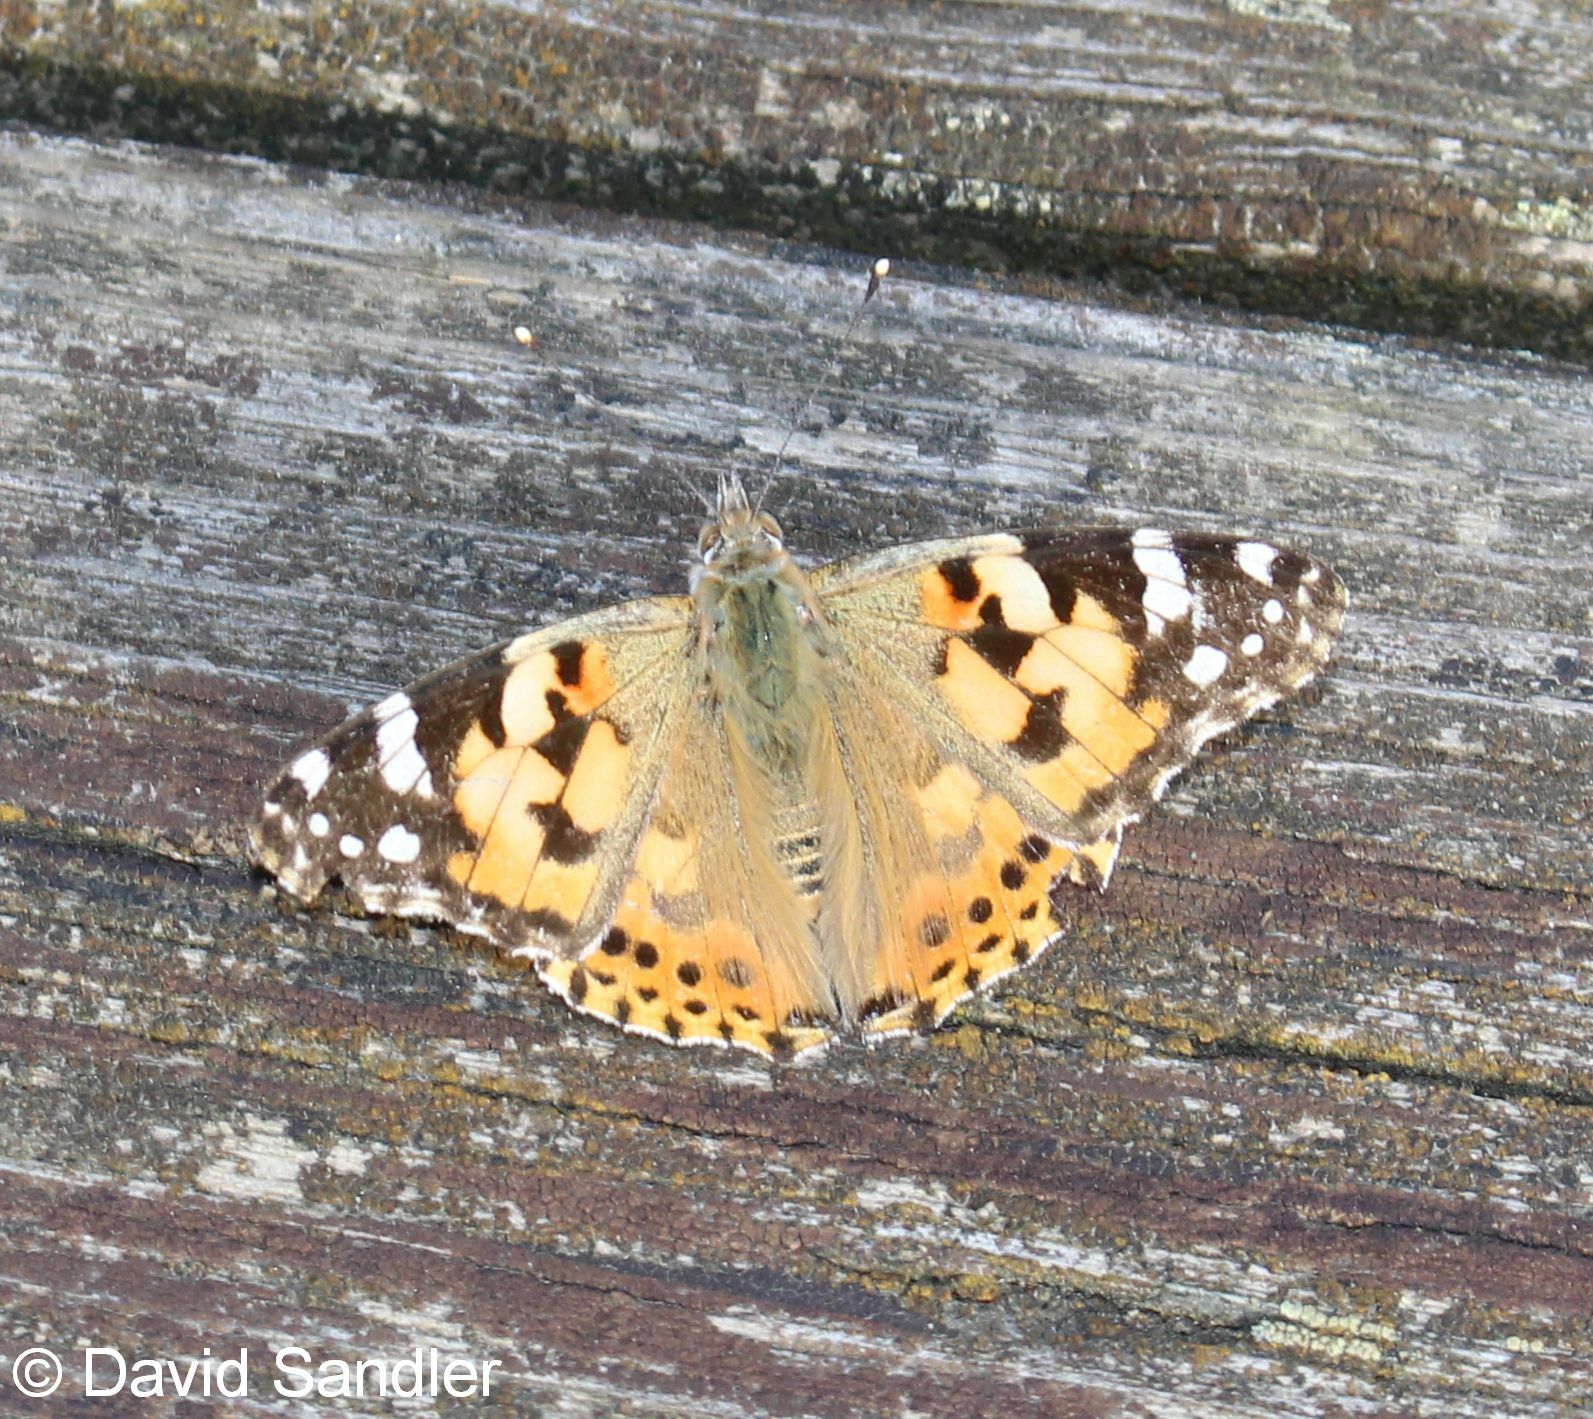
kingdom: Animalia
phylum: Arthropoda
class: Insecta
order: Lepidoptera
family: Nymphalidae
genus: Vanessa
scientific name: Vanessa cardui
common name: Painted lady
